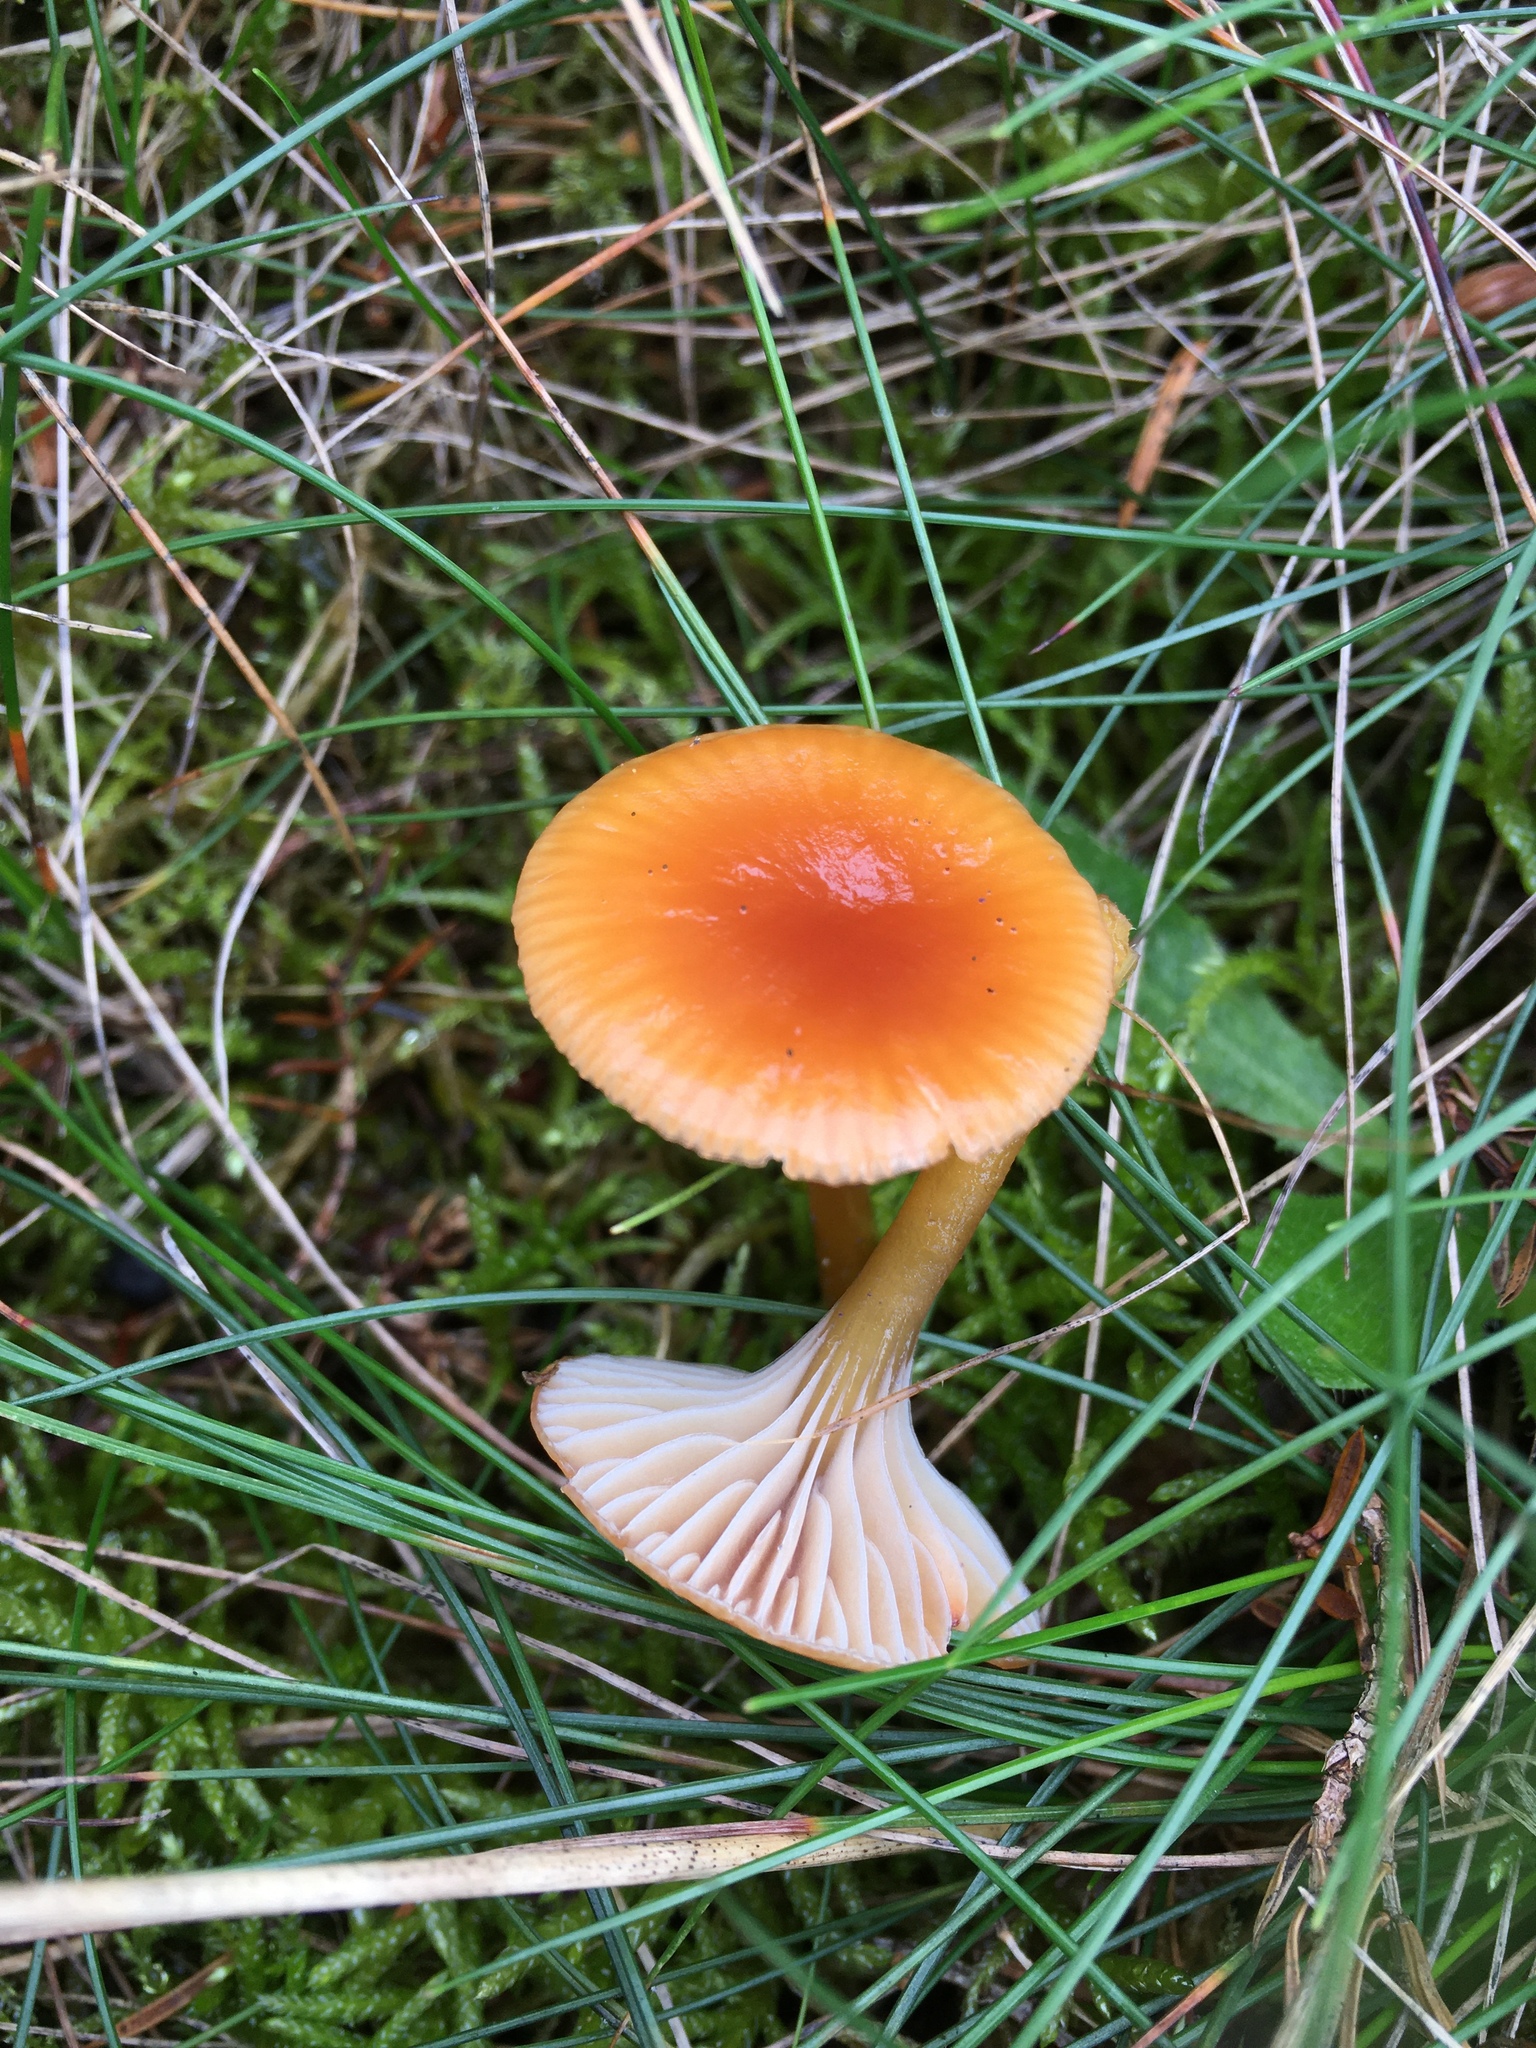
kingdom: Fungi
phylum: Basidiomycota
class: Agaricomycetes
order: Agaricales
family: Hygrophoraceae
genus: Gliophorus
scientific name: Gliophorus laetus
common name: Heath waxcap
